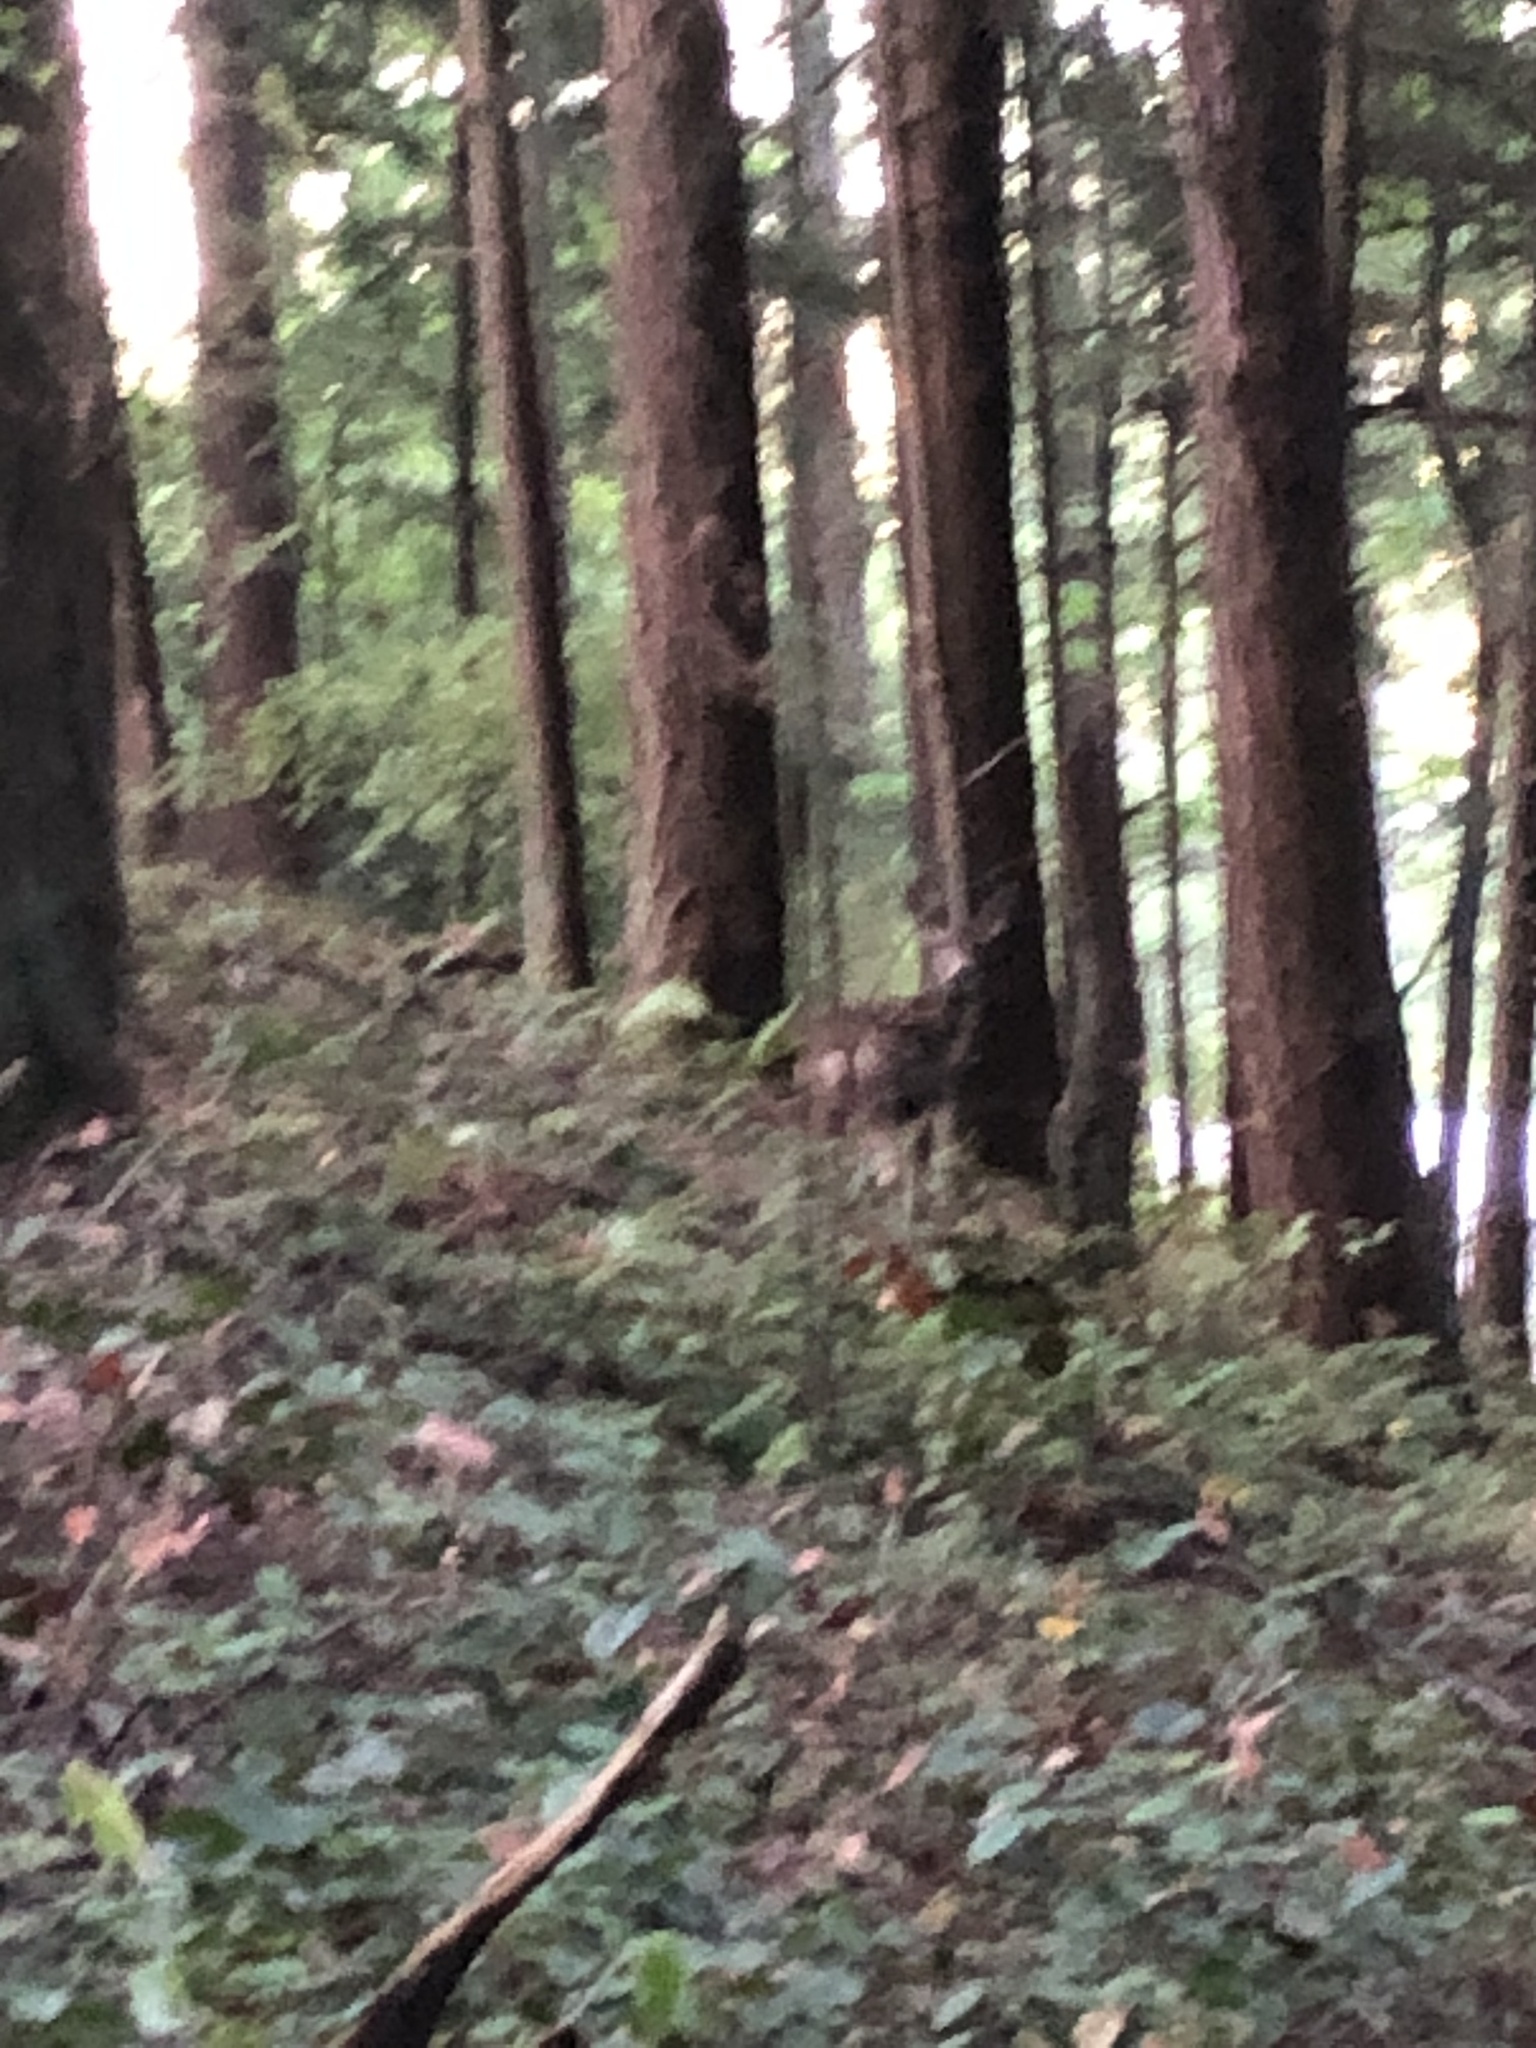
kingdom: Animalia
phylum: Chordata
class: Mammalia
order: Artiodactyla
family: Cervidae
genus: Odocoileus
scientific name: Odocoileus hemionus
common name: Mule deer
